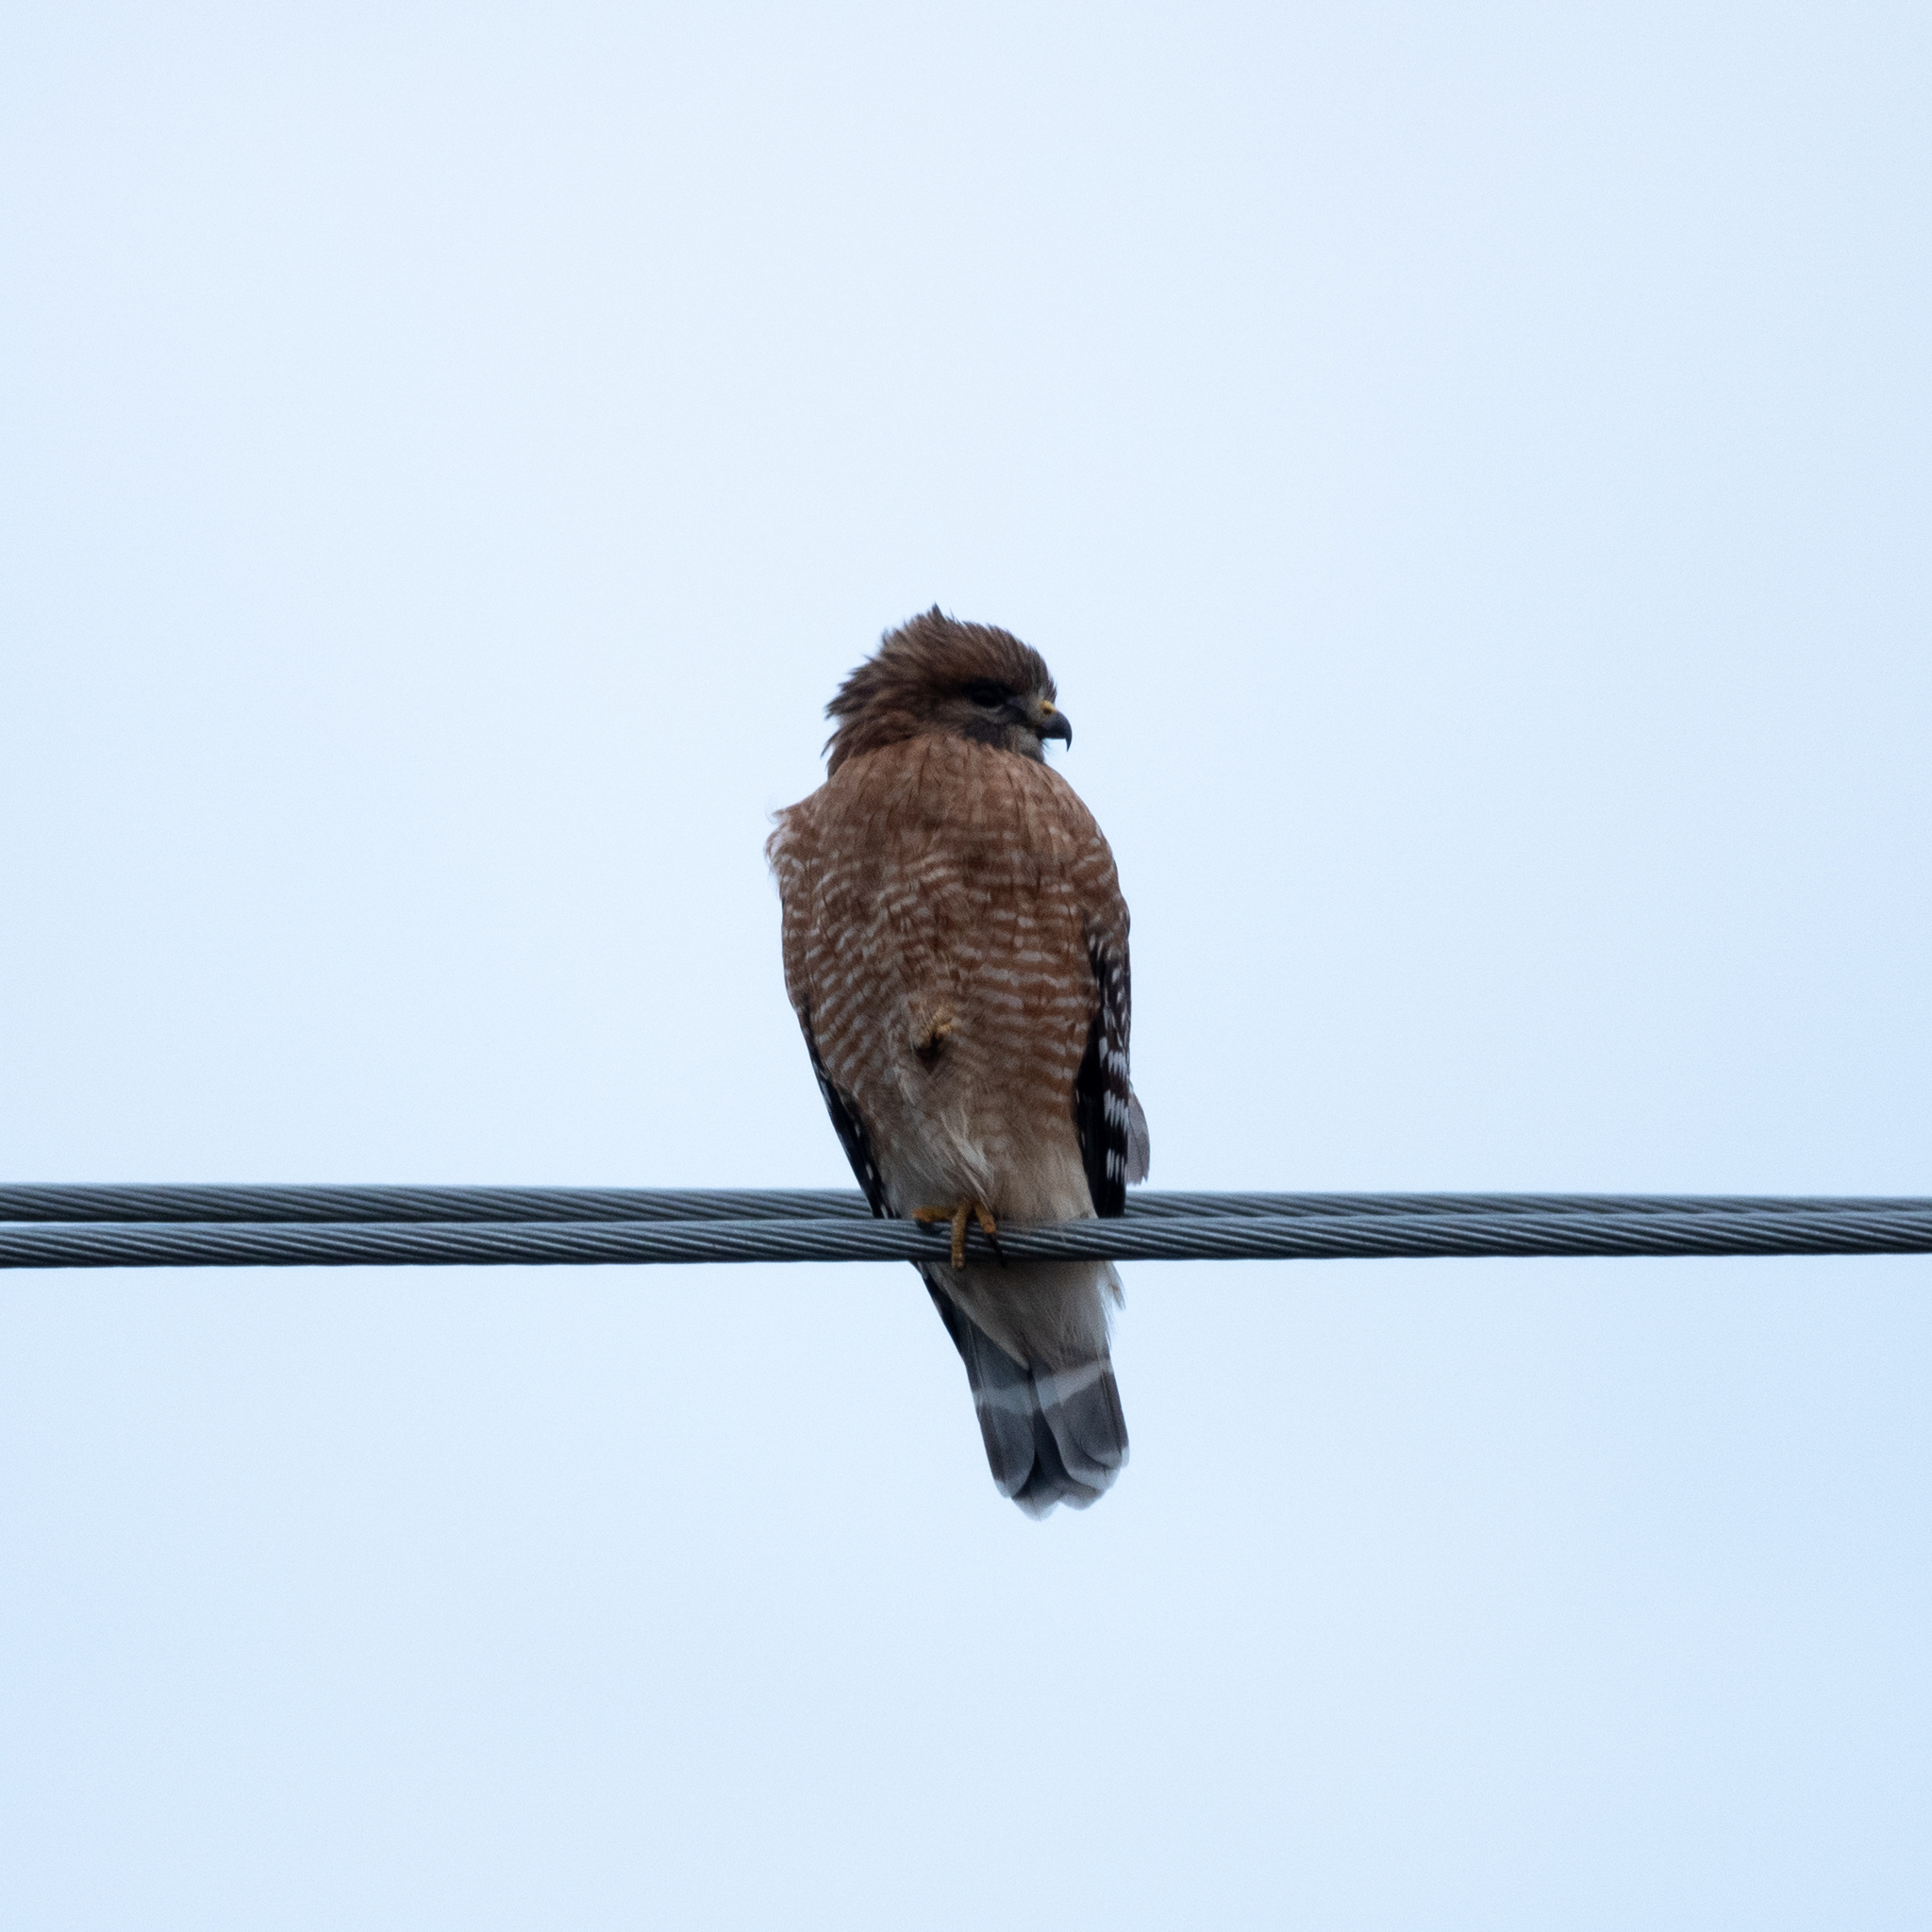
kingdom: Animalia
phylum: Chordata
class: Aves
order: Accipitriformes
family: Accipitridae
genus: Buteo
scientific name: Buteo lineatus
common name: Red-shouldered hawk
